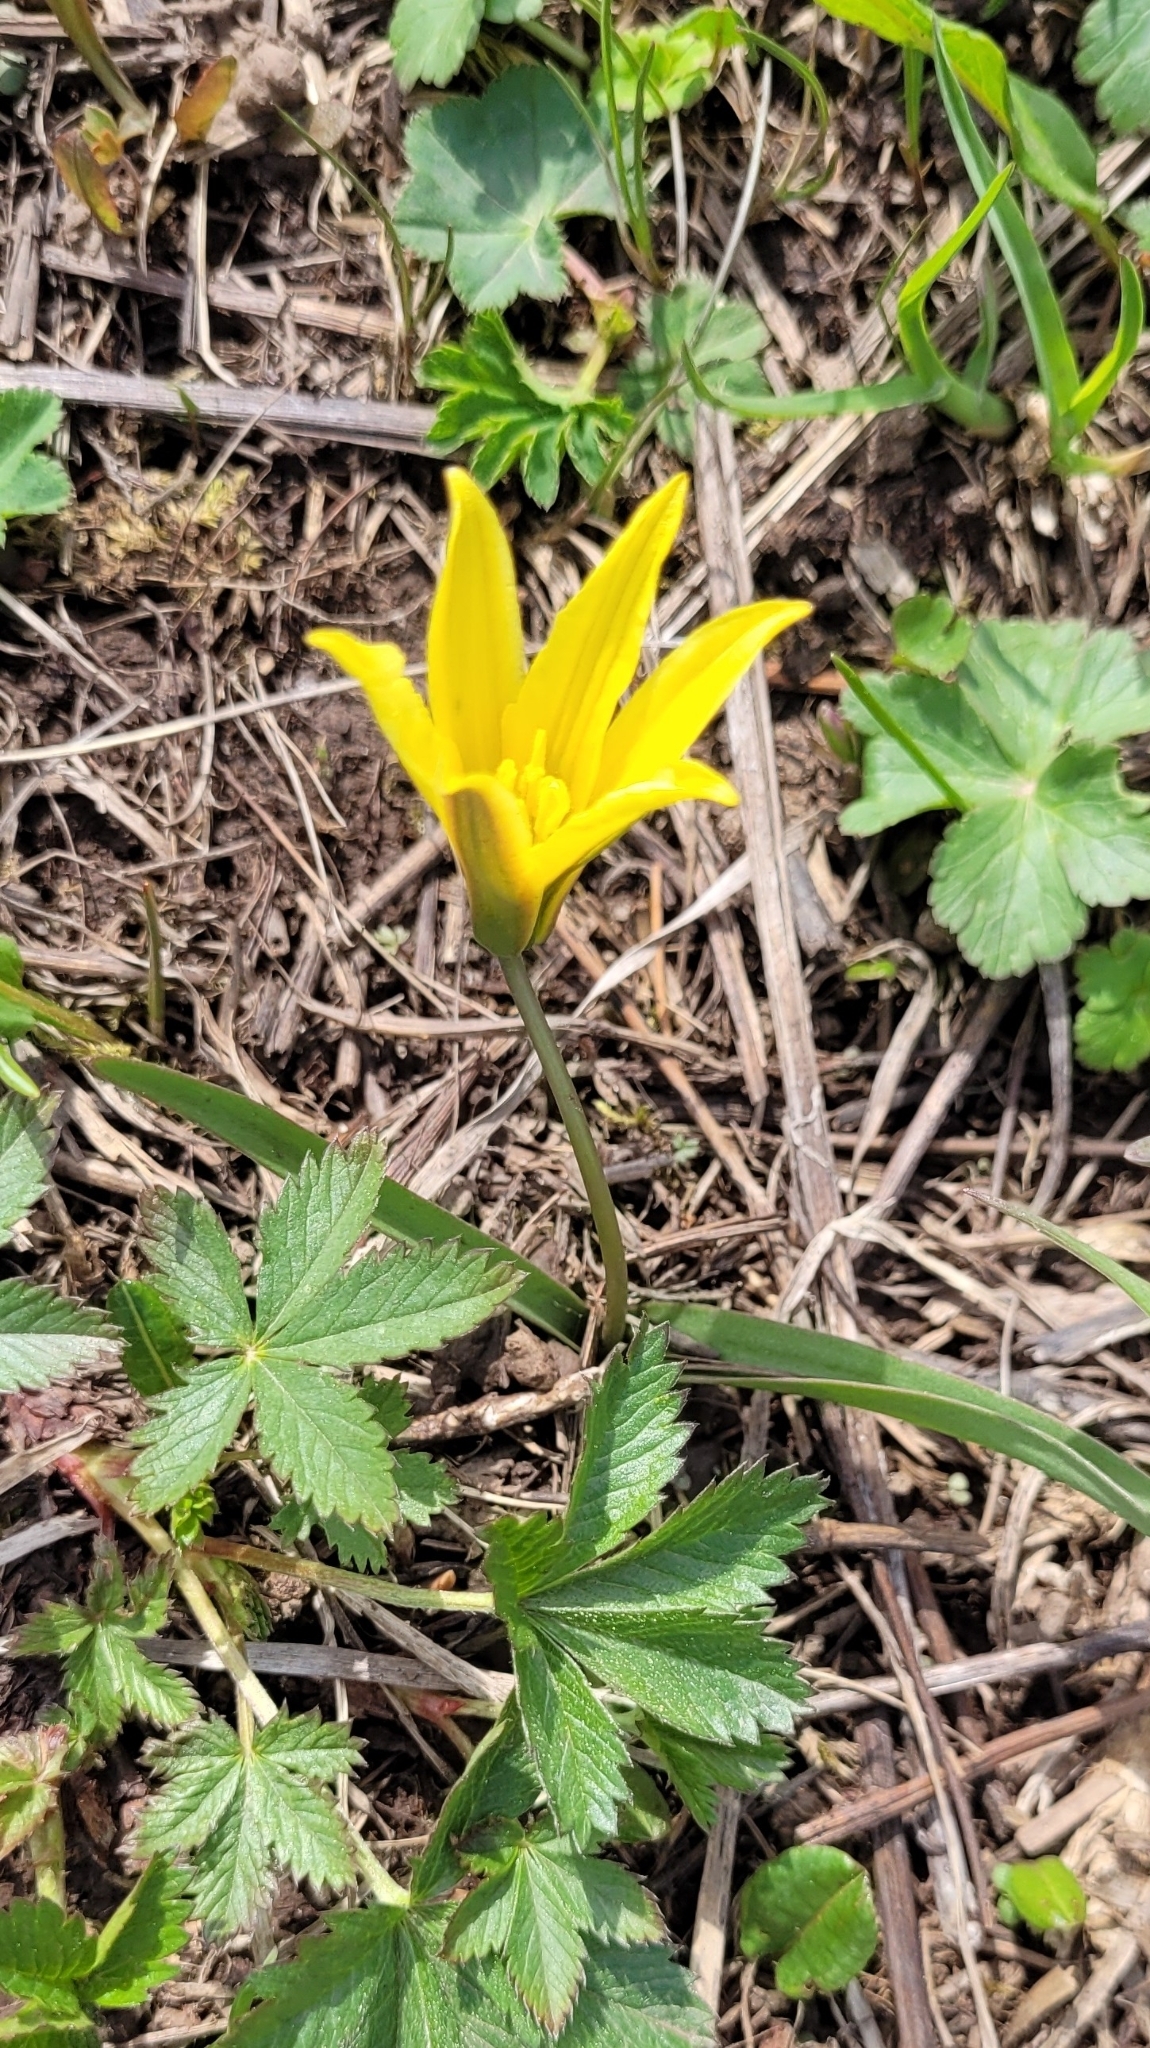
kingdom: Plantae
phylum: Tracheophyta
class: Liliopsida
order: Liliales
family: Liliaceae
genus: Tulipa
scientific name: Tulipa heterophylla
